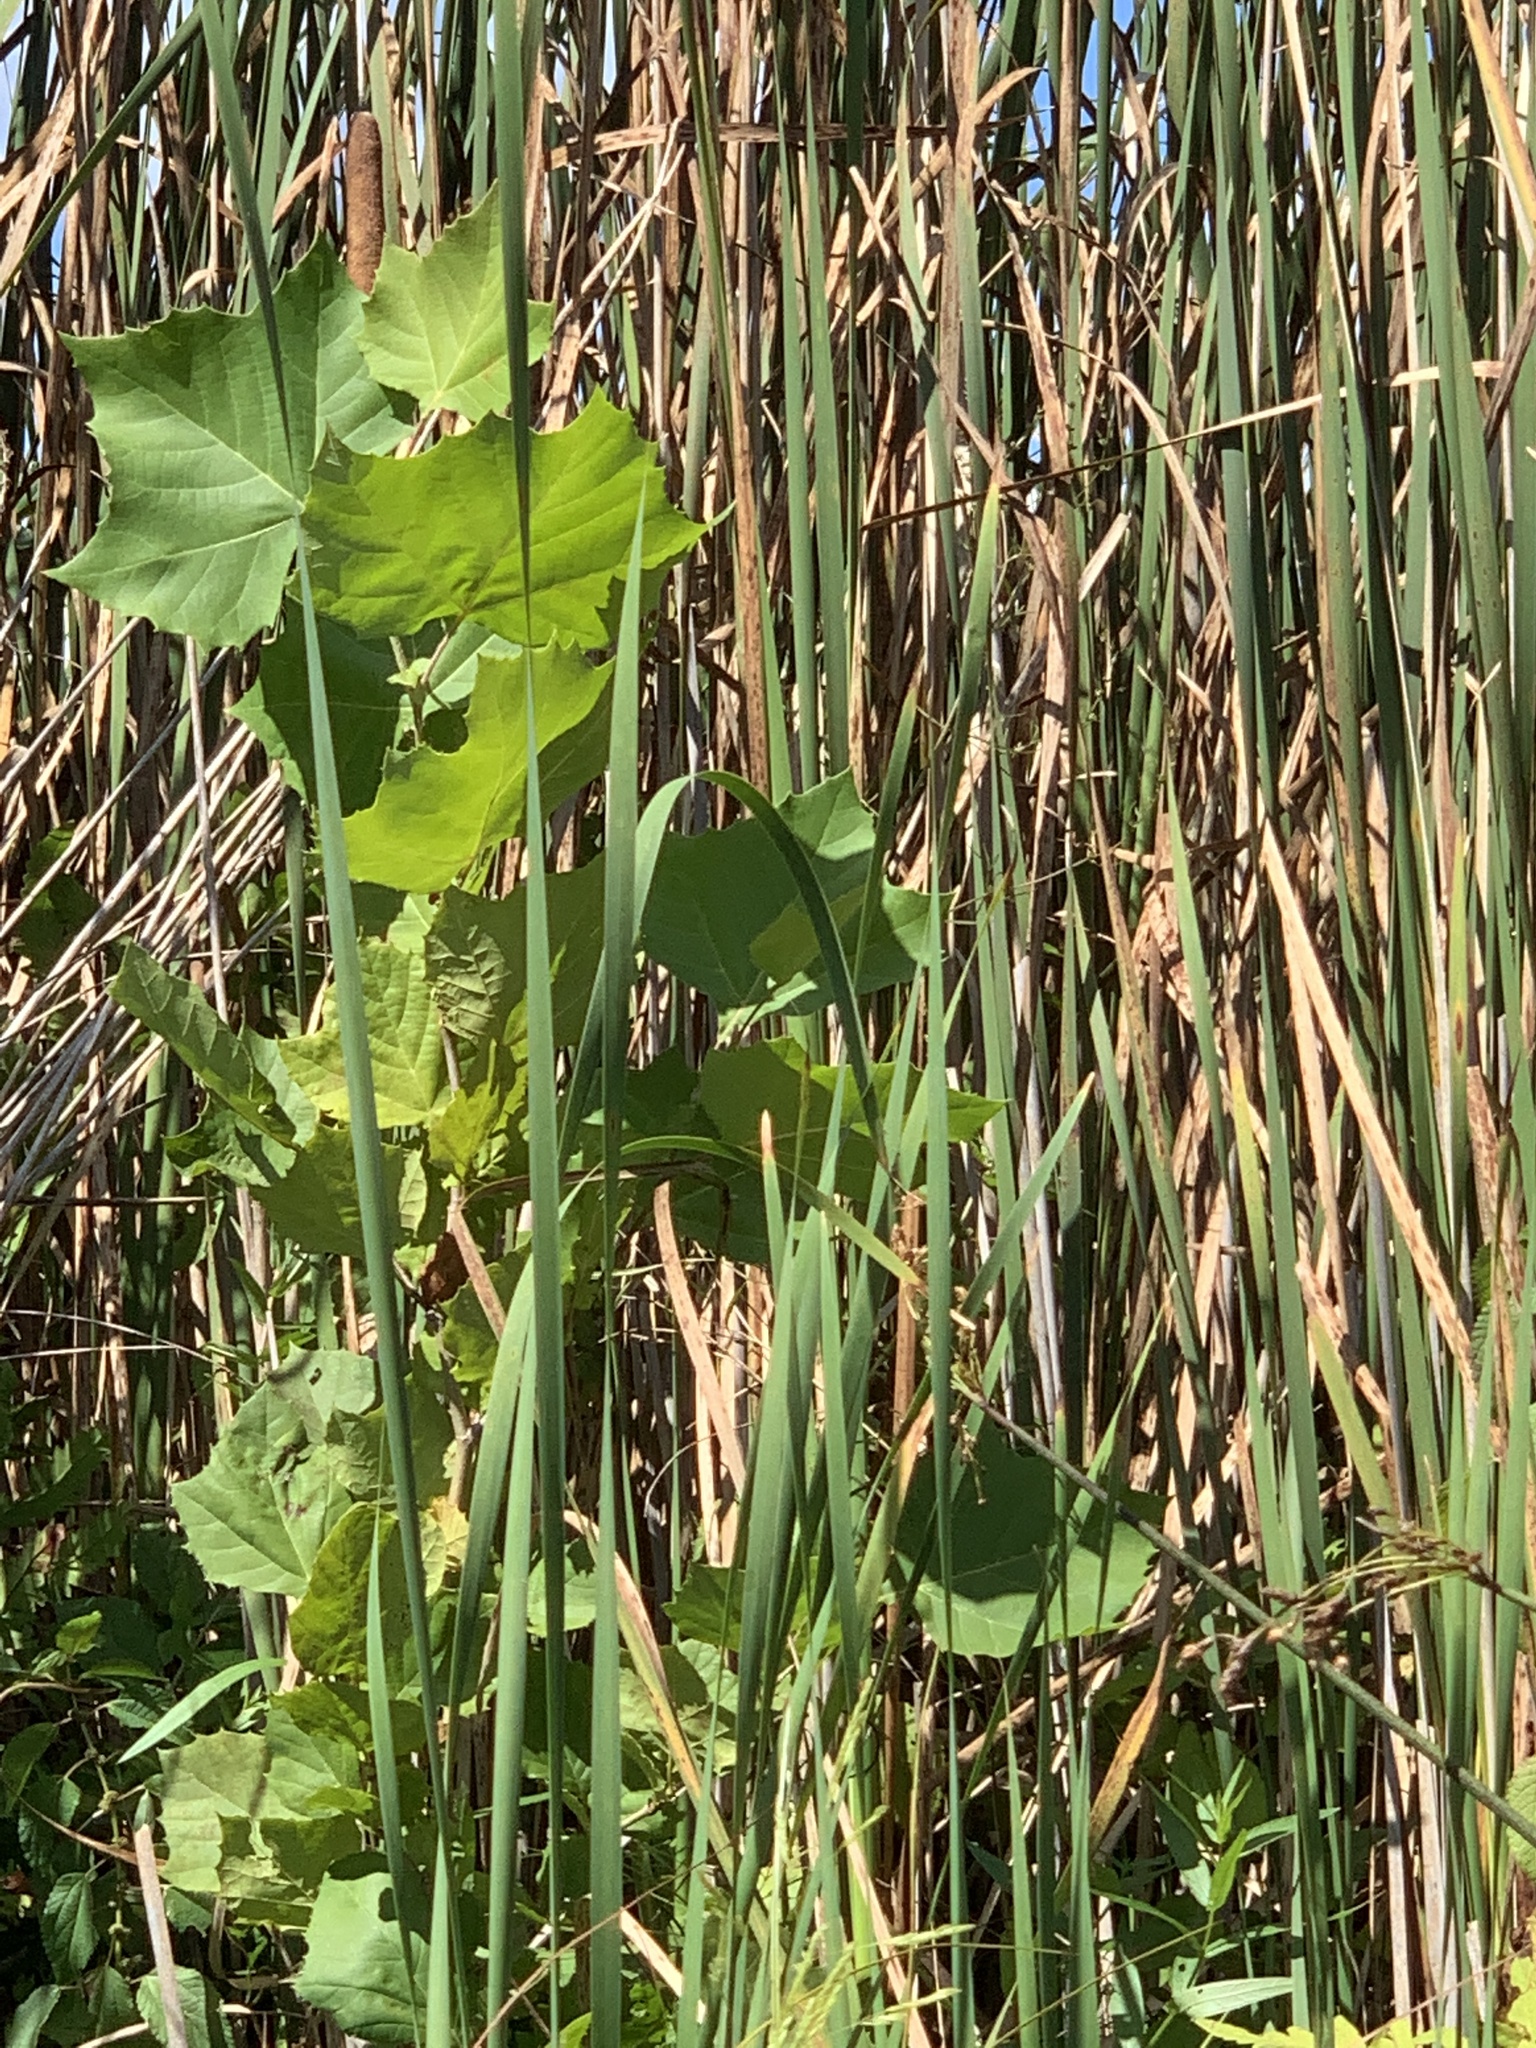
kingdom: Plantae
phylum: Tracheophyta
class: Magnoliopsida
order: Proteales
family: Platanaceae
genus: Platanus
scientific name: Platanus occidentalis
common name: American sycamore
